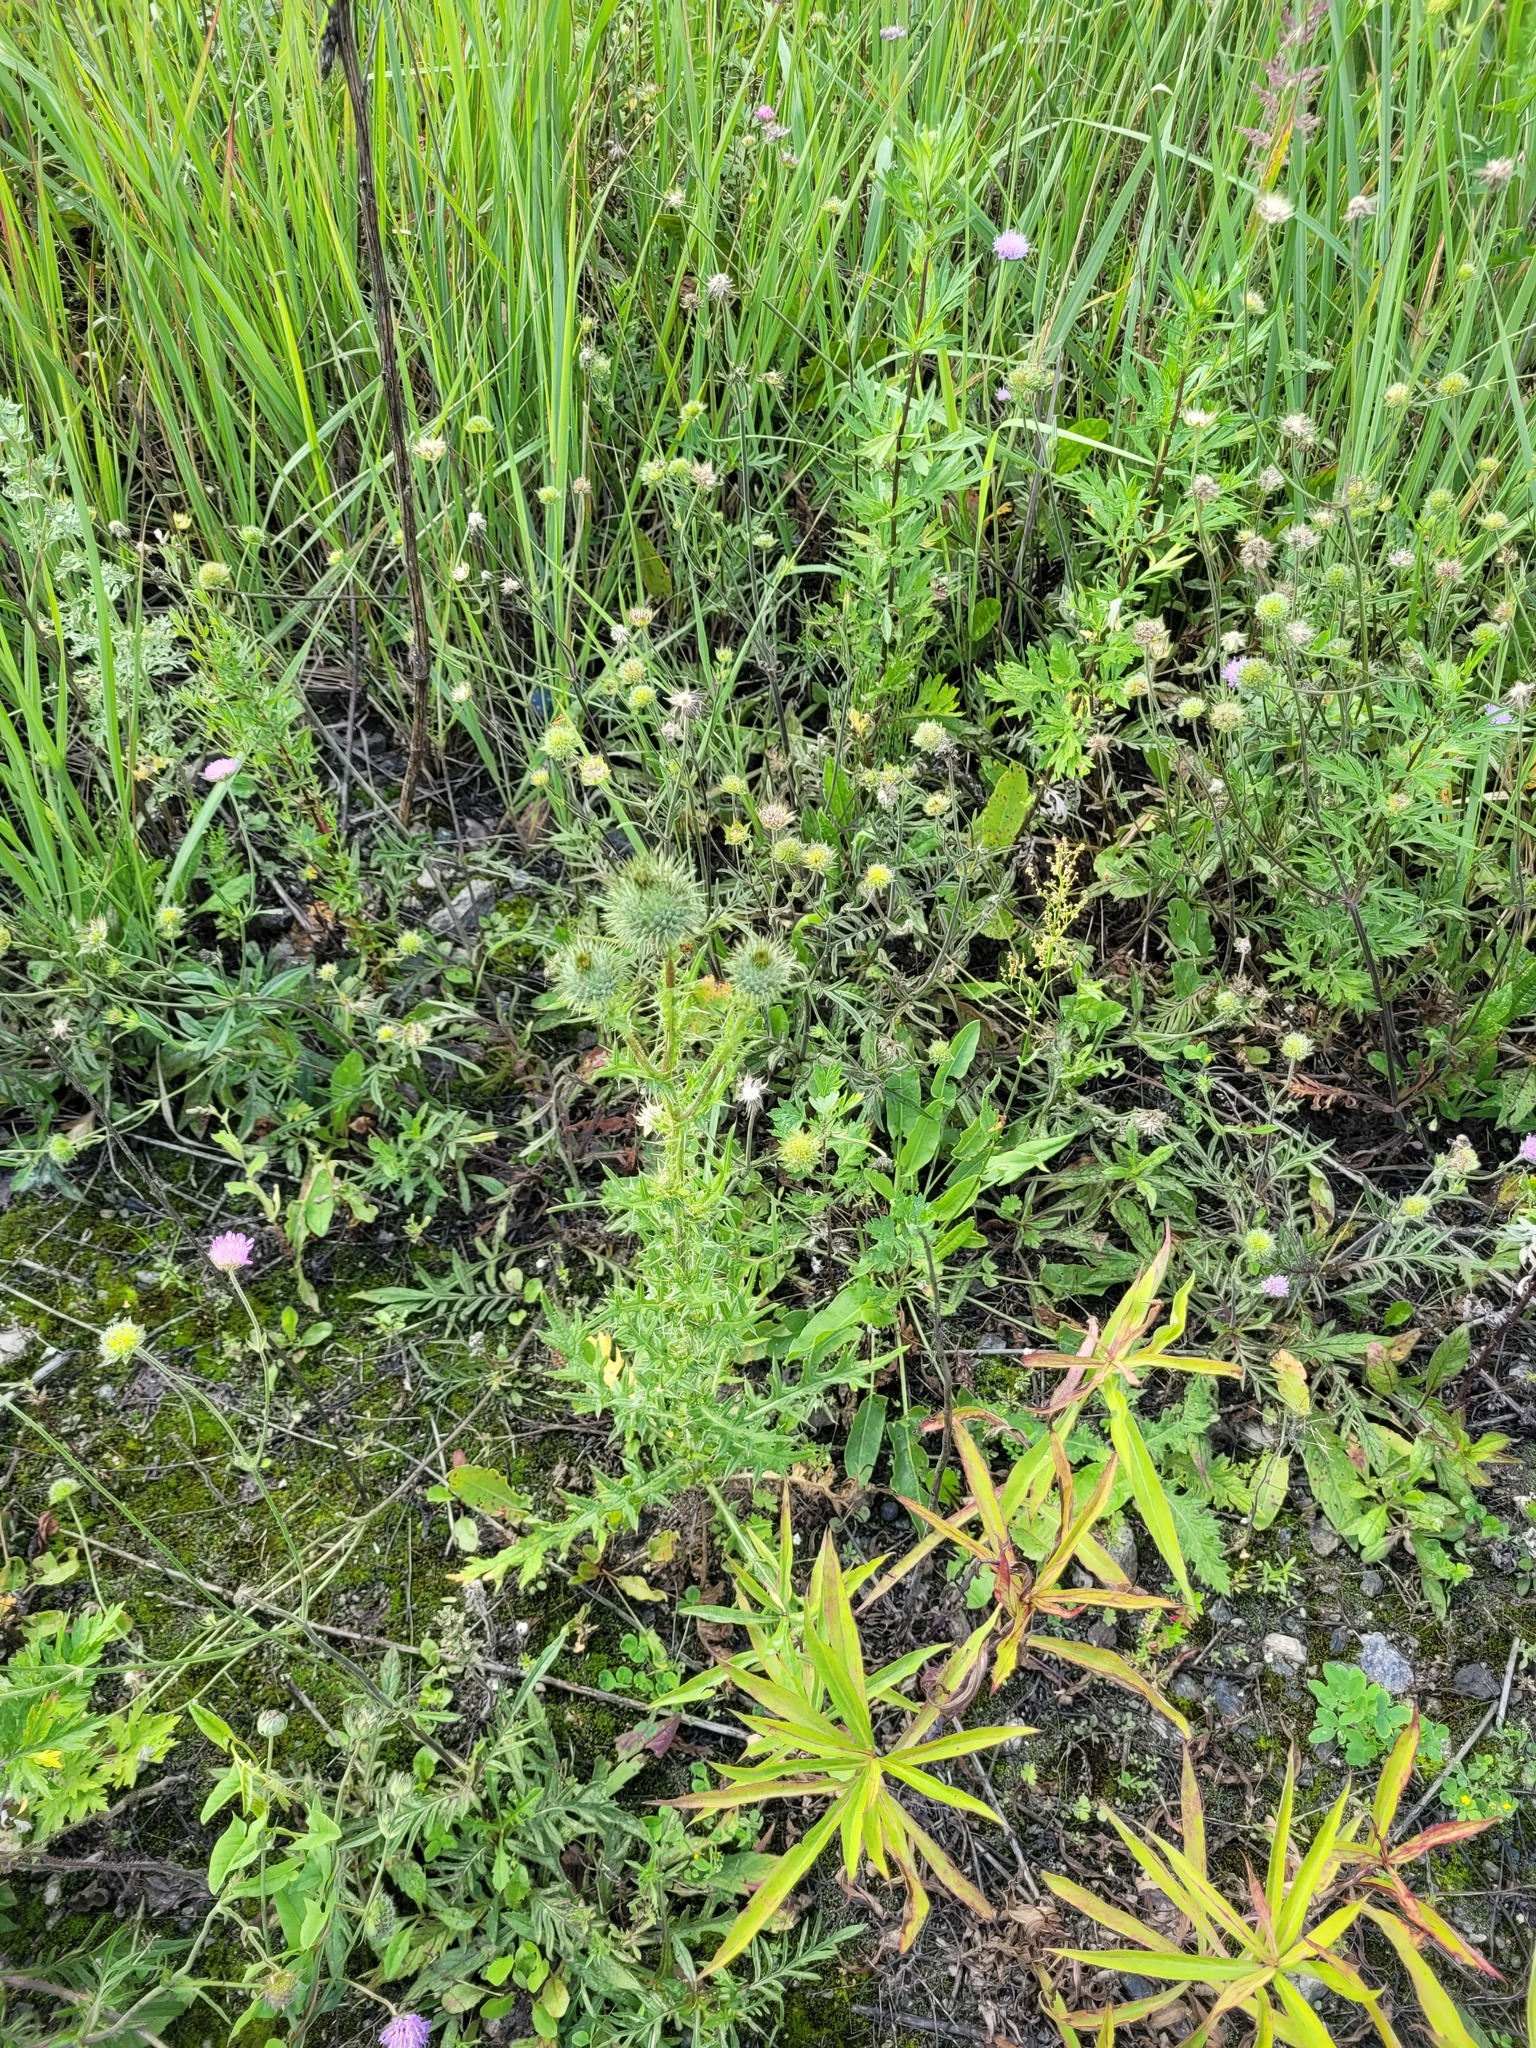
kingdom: Plantae
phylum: Tracheophyta
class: Magnoliopsida
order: Asterales
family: Asteraceae
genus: Cirsium
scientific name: Cirsium vulgare
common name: Bull thistle
